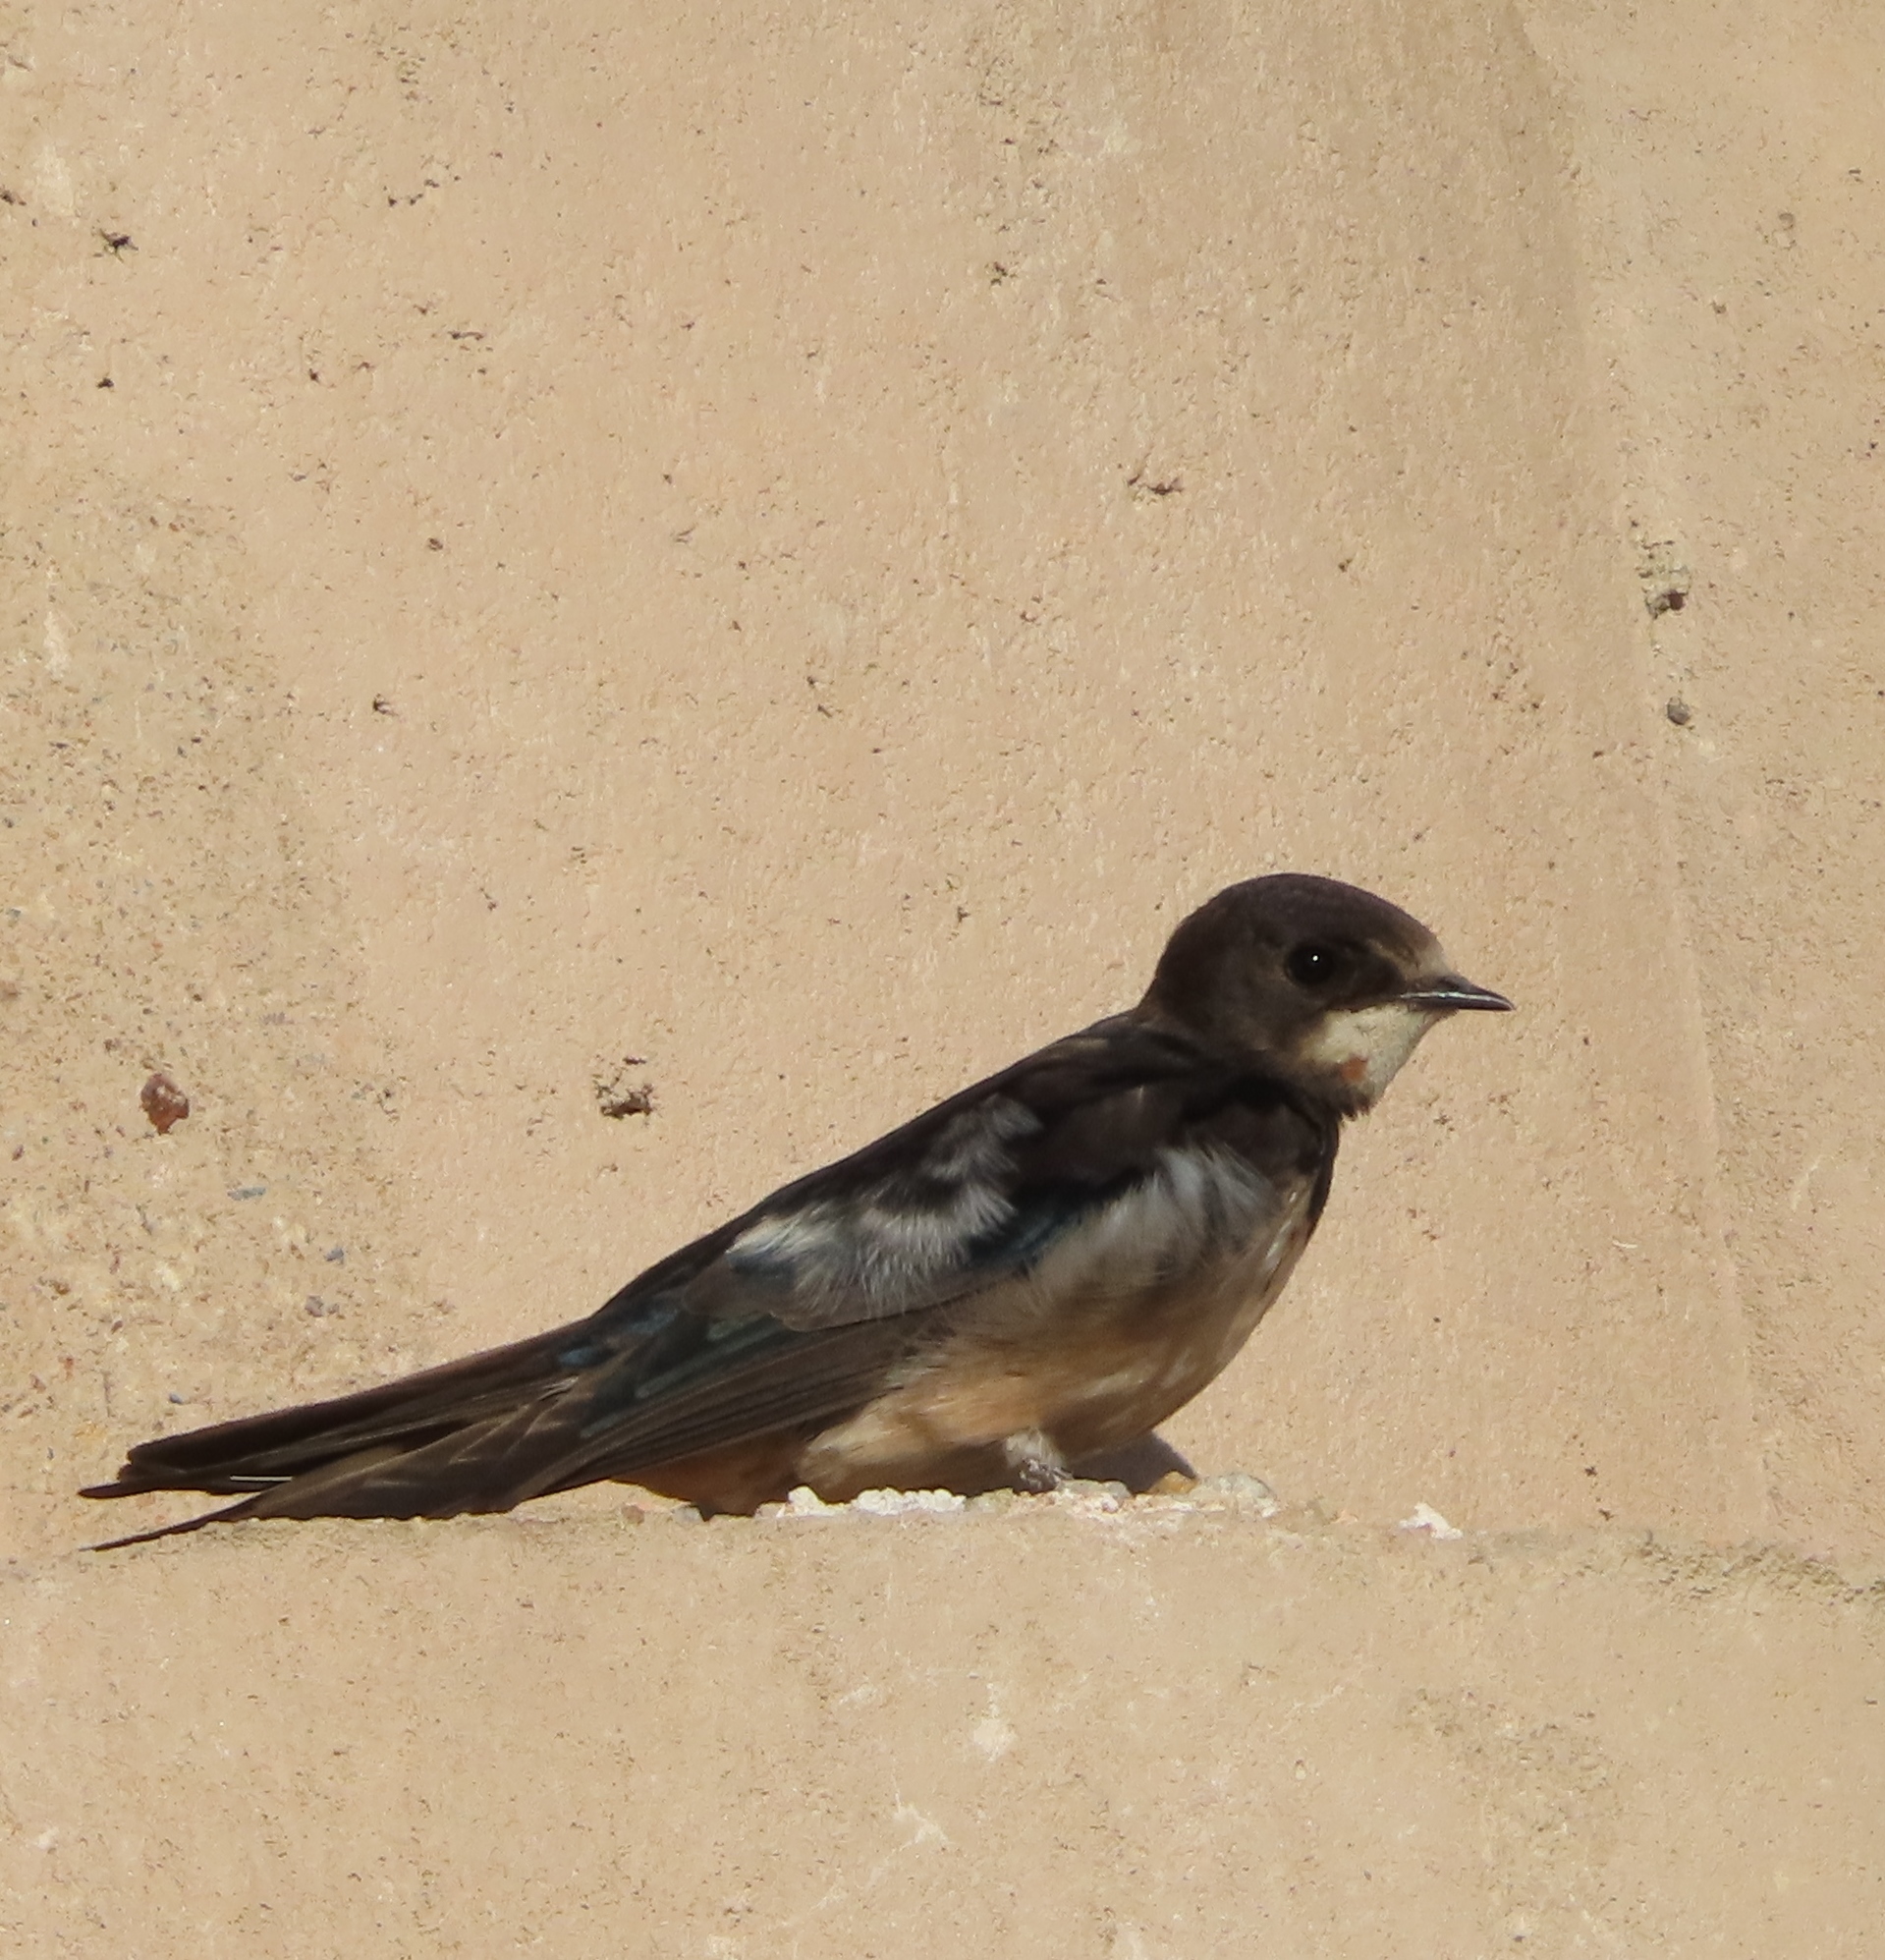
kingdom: Animalia
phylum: Chordata
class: Aves
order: Passeriformes
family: Hirundinidae
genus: Hirundo
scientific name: Hirundo albigularis
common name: White-throated swallow
